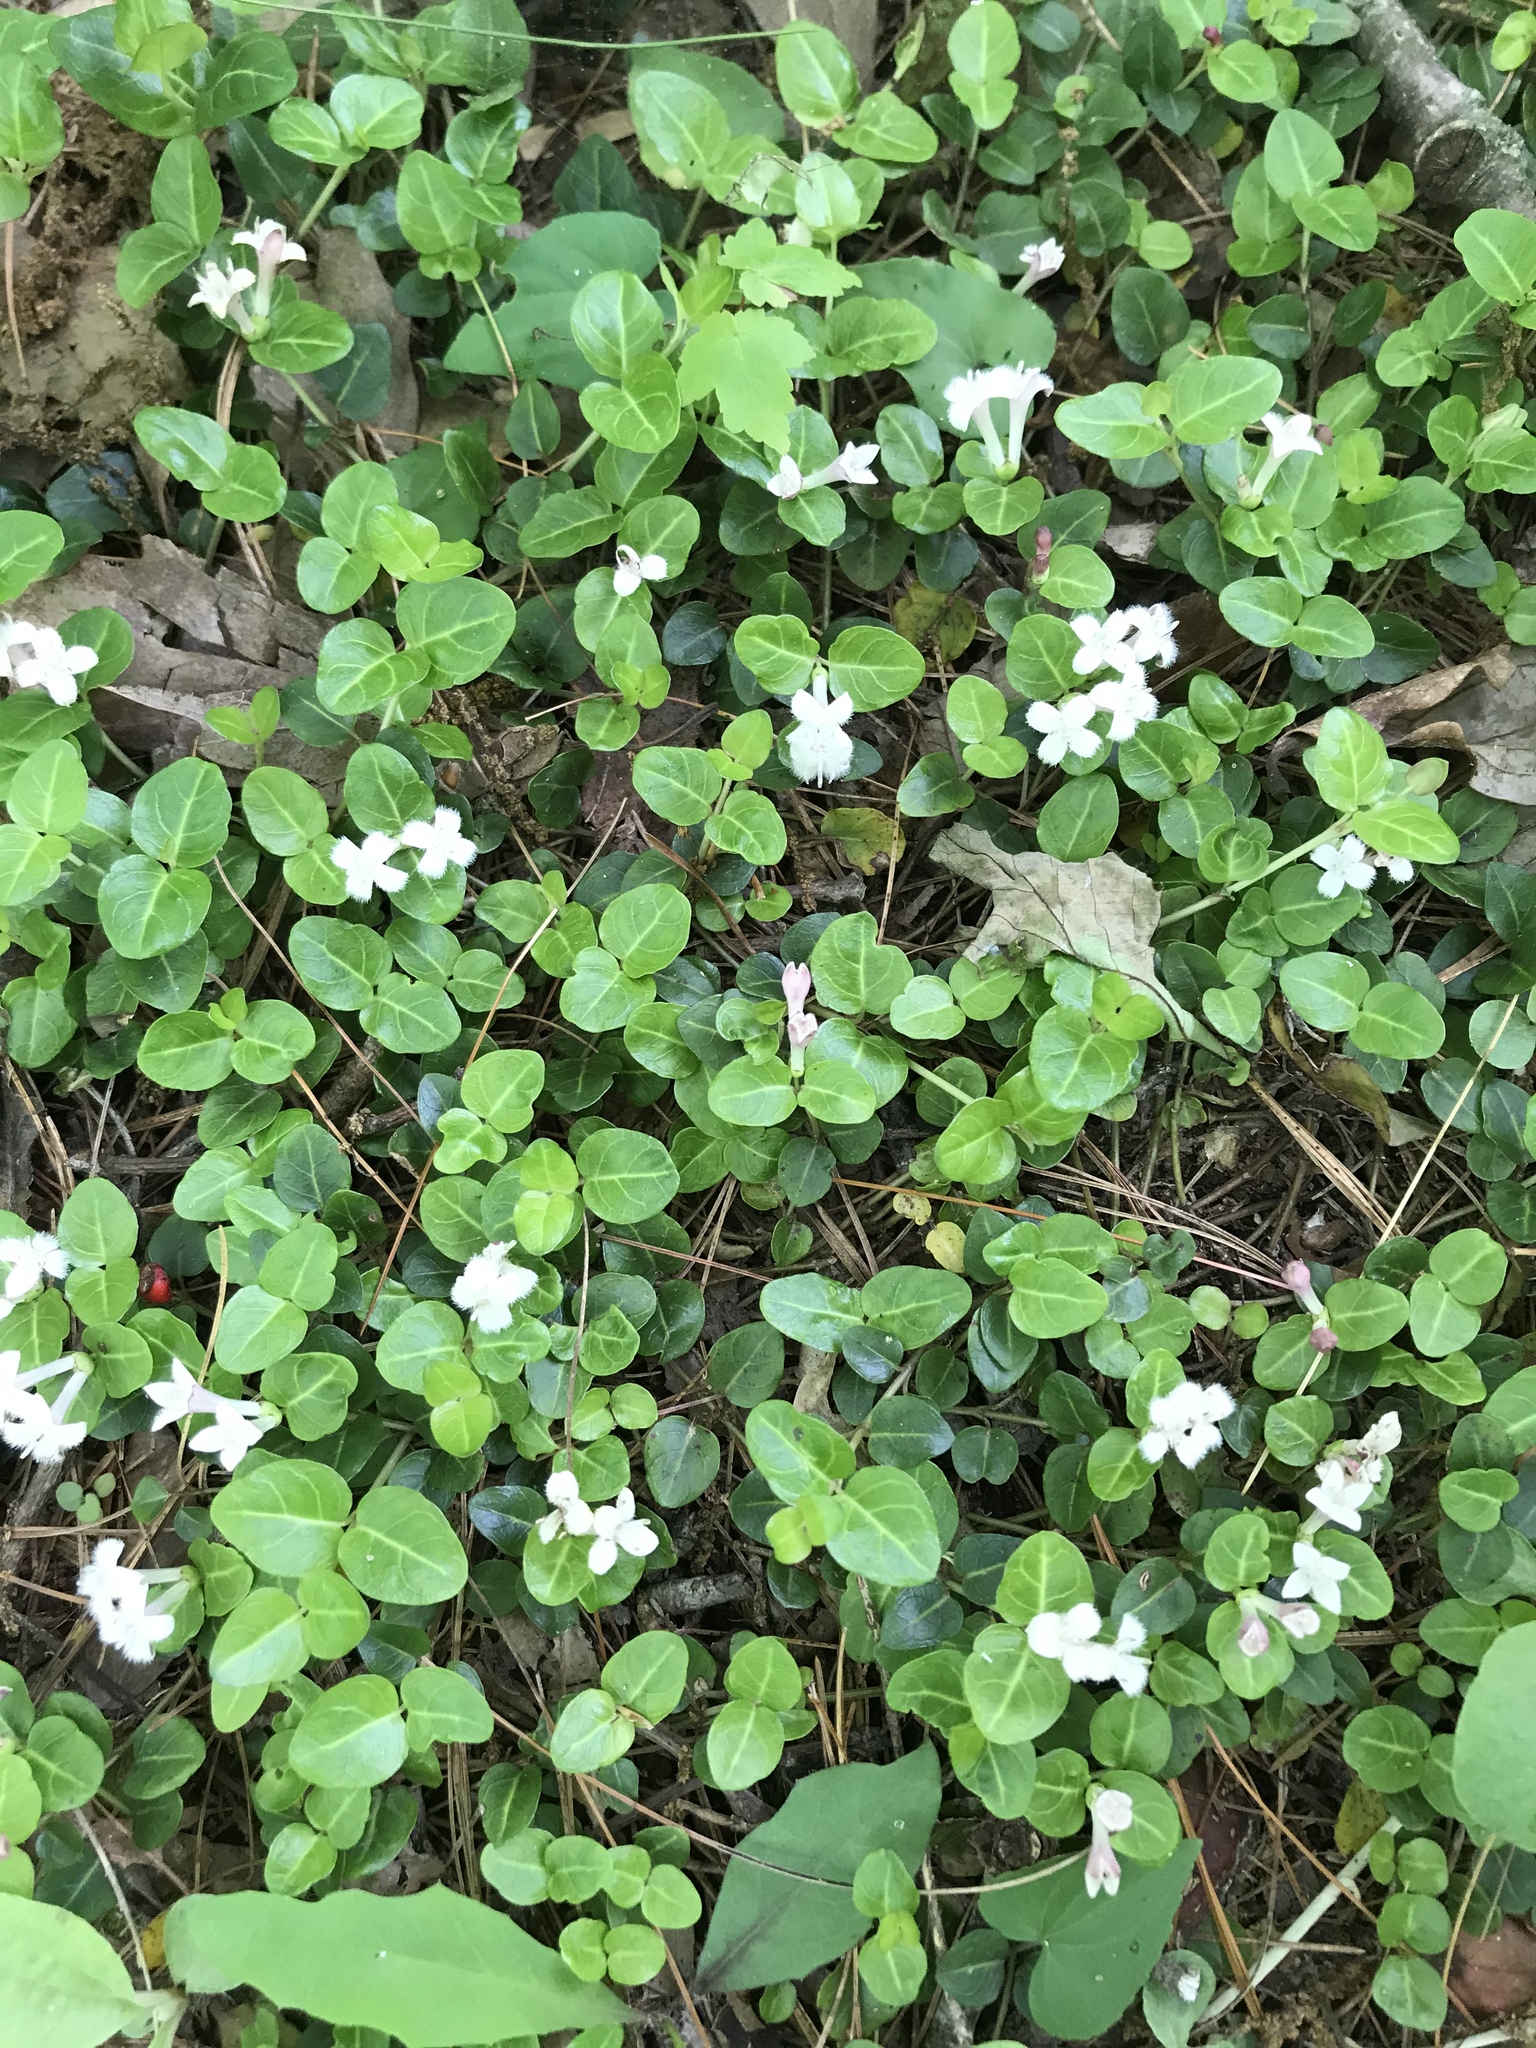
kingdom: Plantae
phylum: Tracheophyta
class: Magnoliopsida
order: Gentianales
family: Rubiaceae
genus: Mitchella
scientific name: Mitchella repens
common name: Partridge-berry
